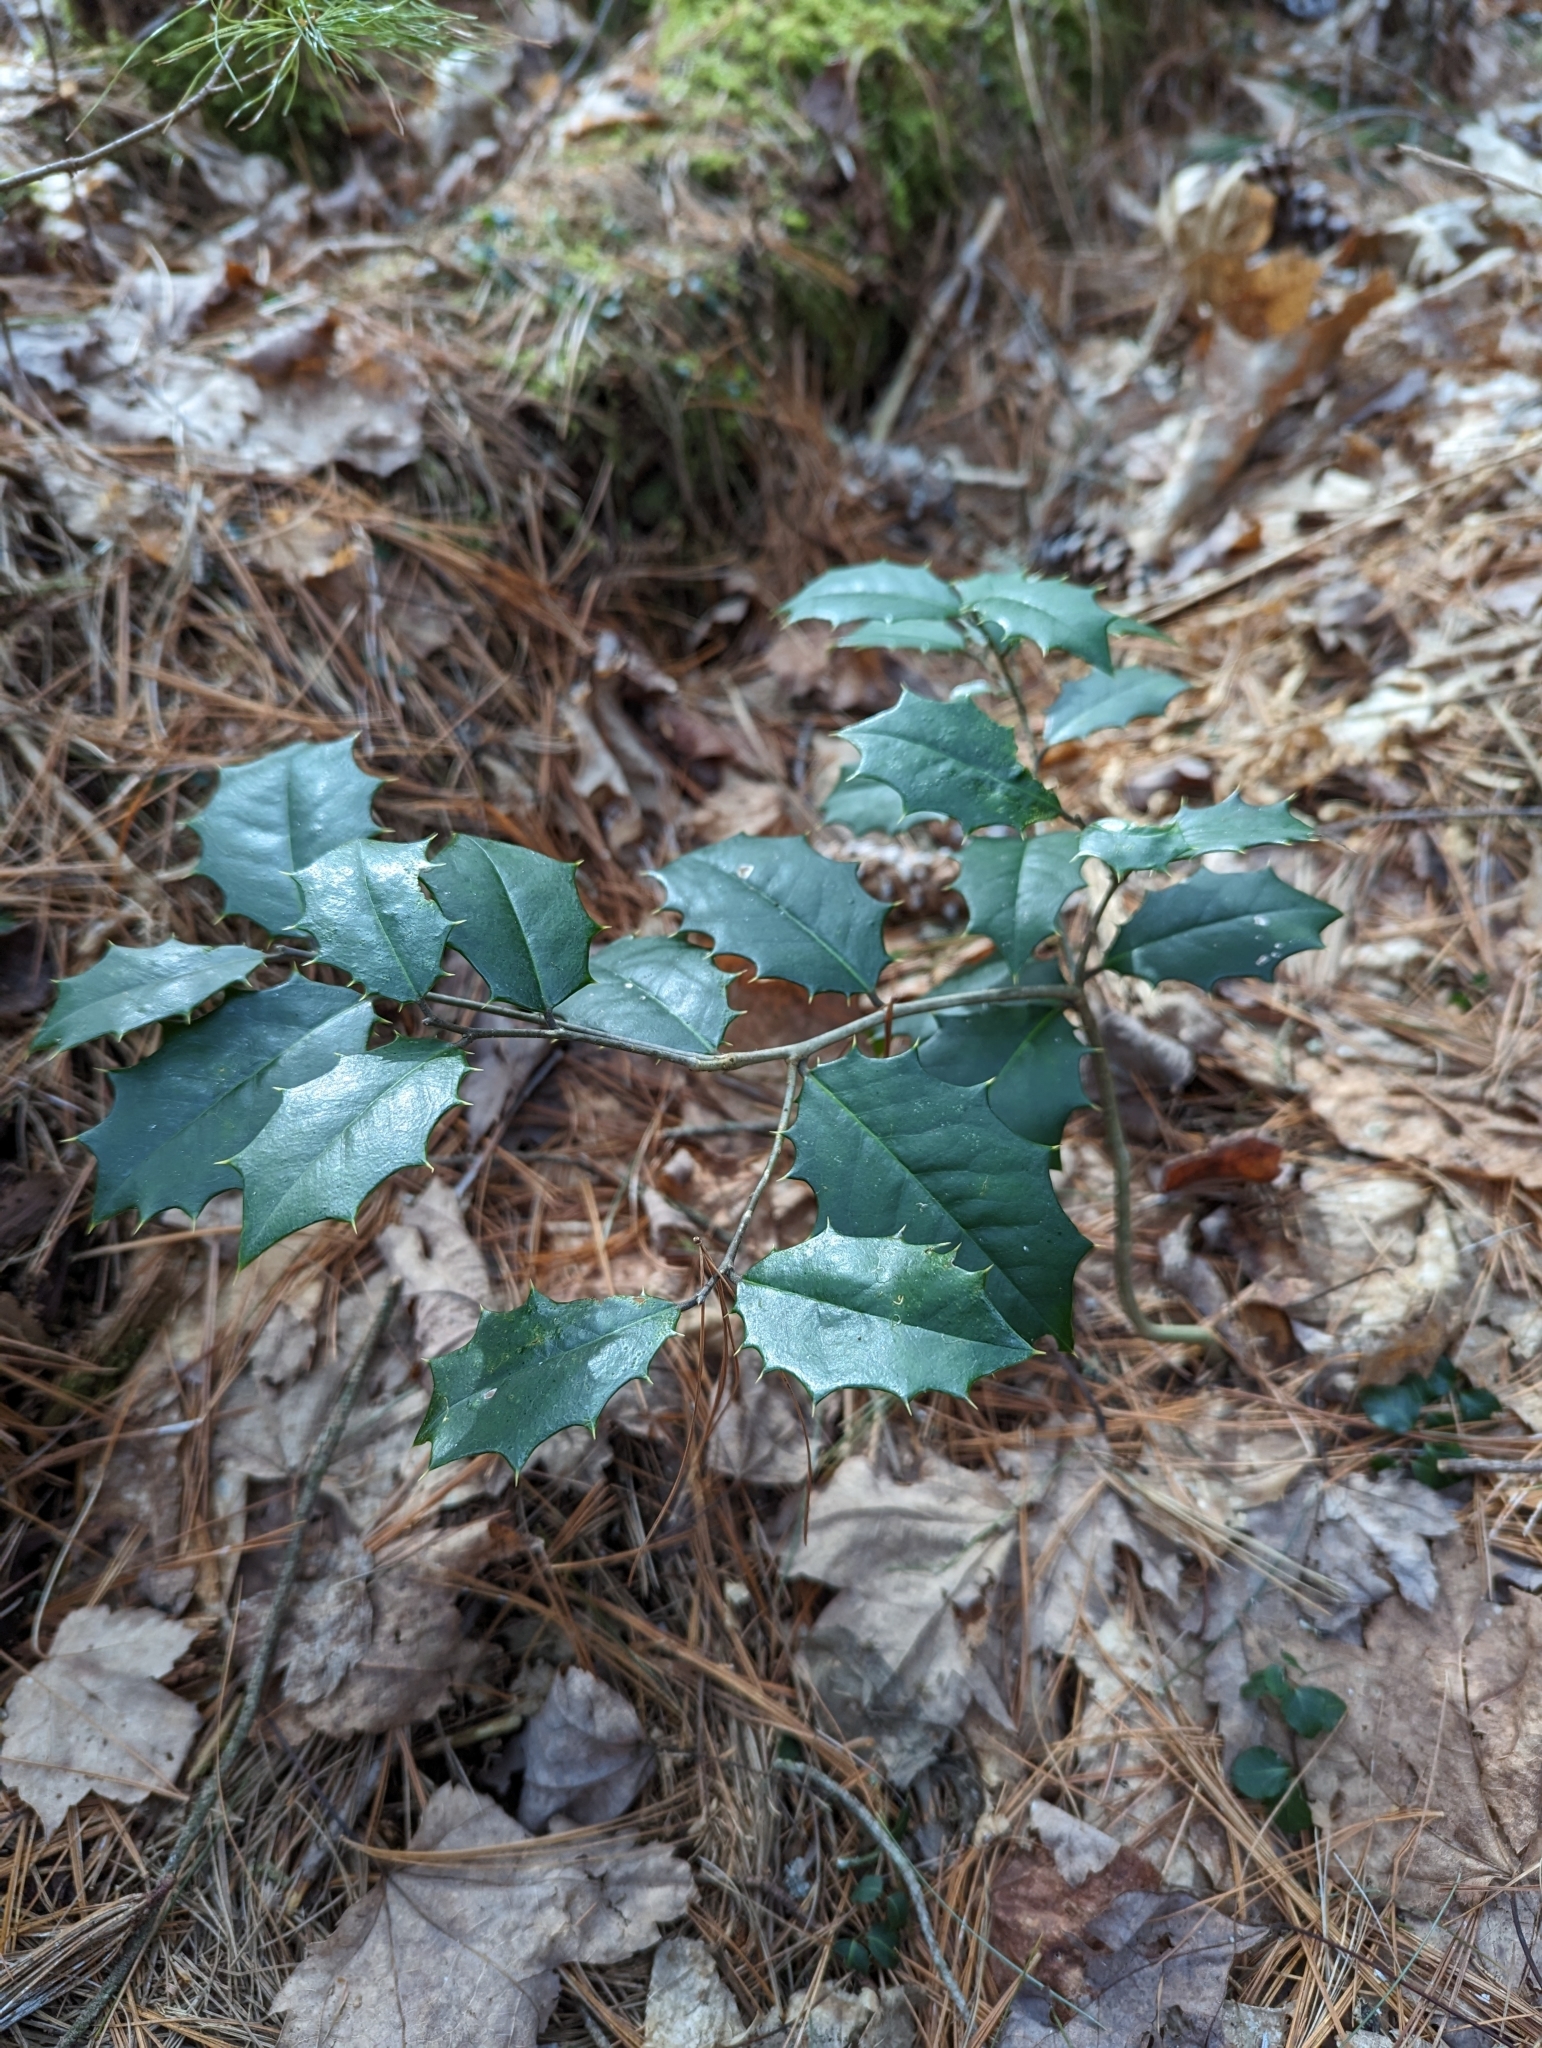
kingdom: Plantae
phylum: Tracheophyta
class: Magnoliopsida
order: Aquifoliales
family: Aquifoliaceae
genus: Ilex
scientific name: Ilex opaca
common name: American holly
